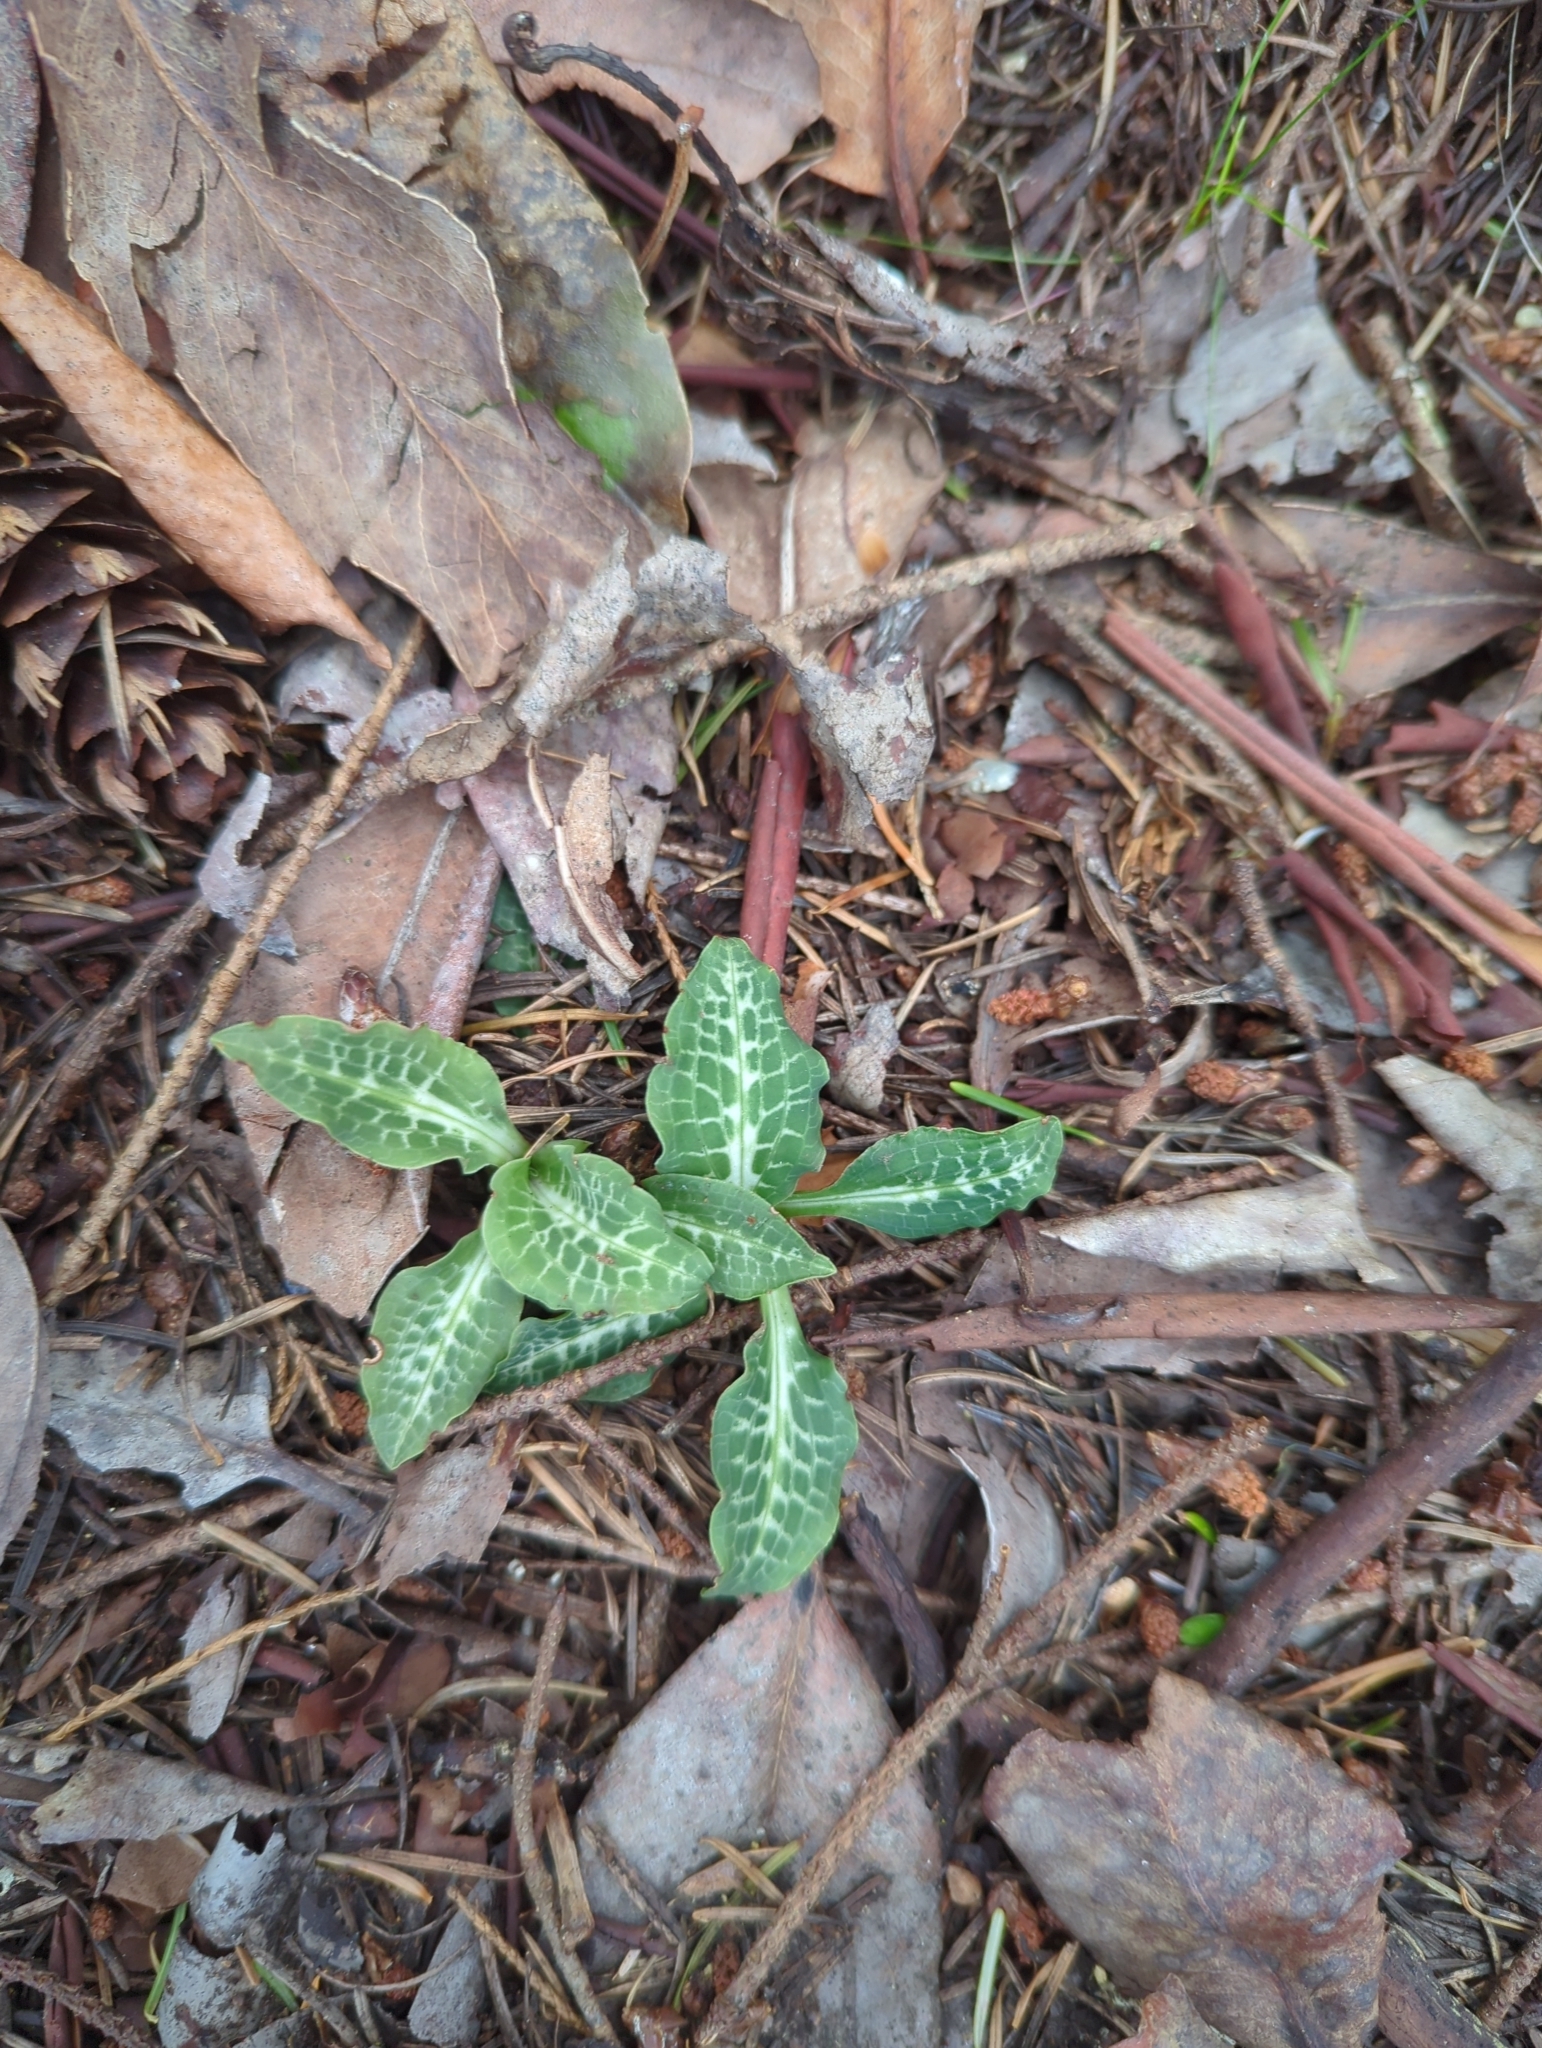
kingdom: Plantae
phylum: Tracheophyta
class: Liliopsida
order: Asparagales
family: Orchidaceae
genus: Goodyera
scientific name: Goodyera oblongifolia
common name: Giant rattlesnake-plantain
